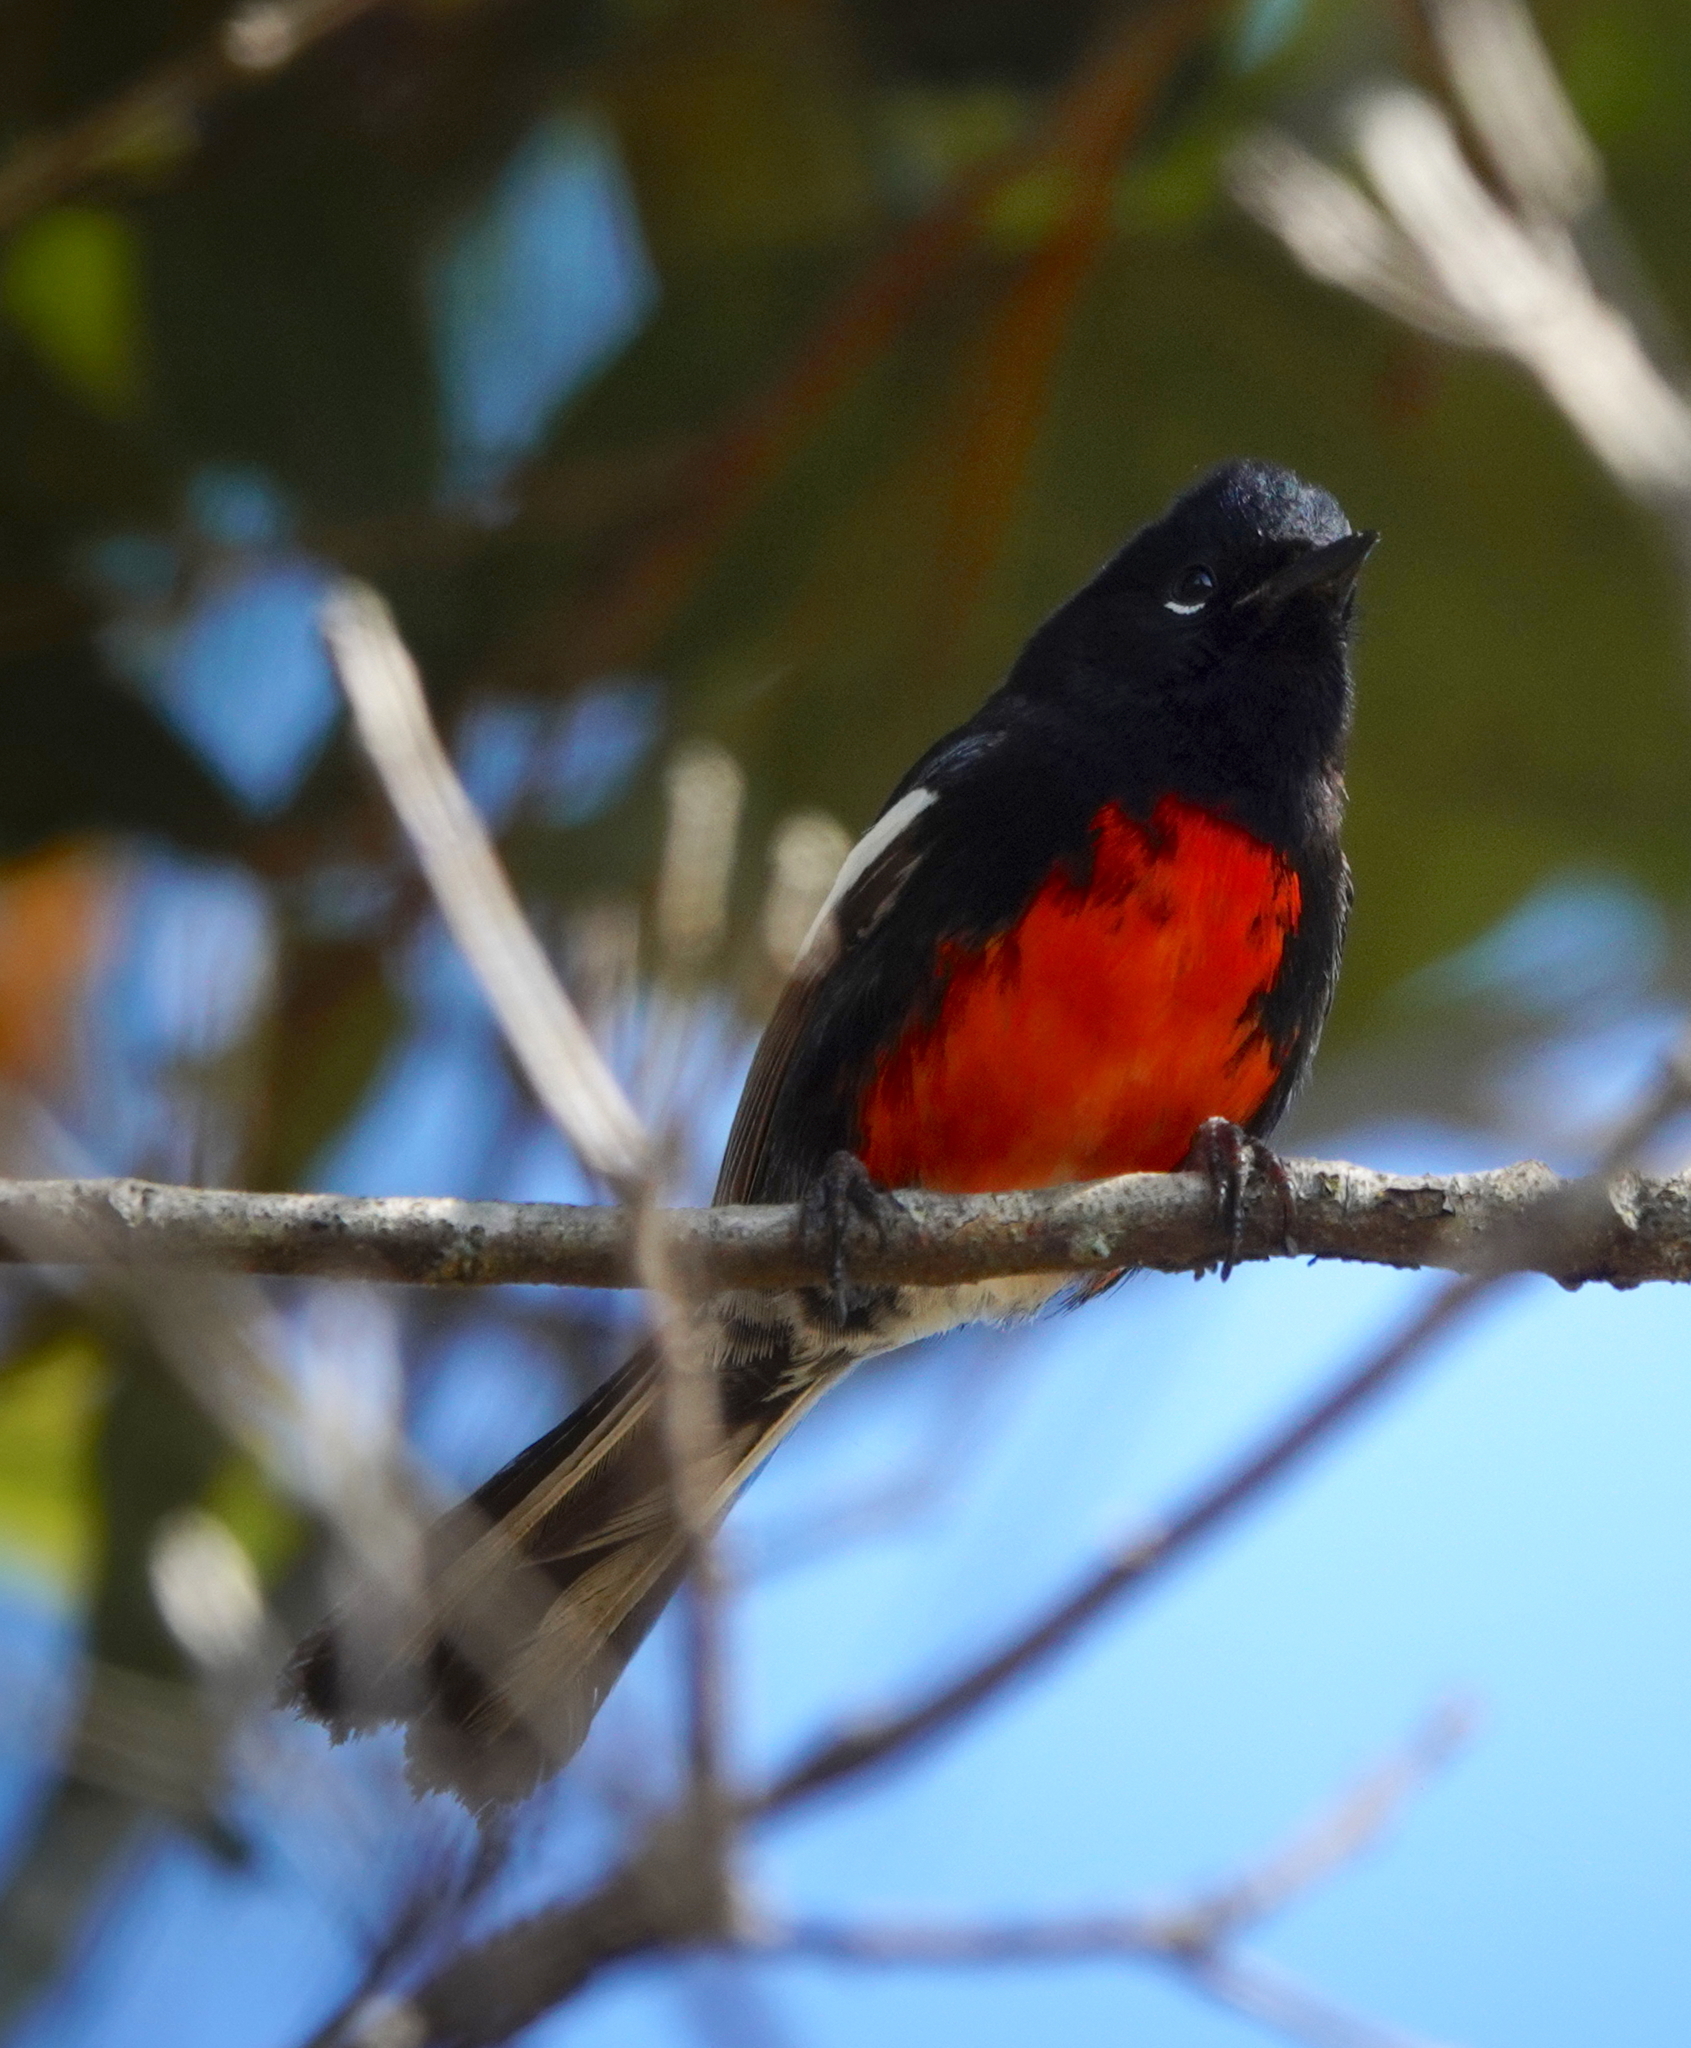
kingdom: Animalia
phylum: Chordata
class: Aves
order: Passeriformes
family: Parulidae
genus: Myioborus
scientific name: Myioborus pictus
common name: Painted whitestart
